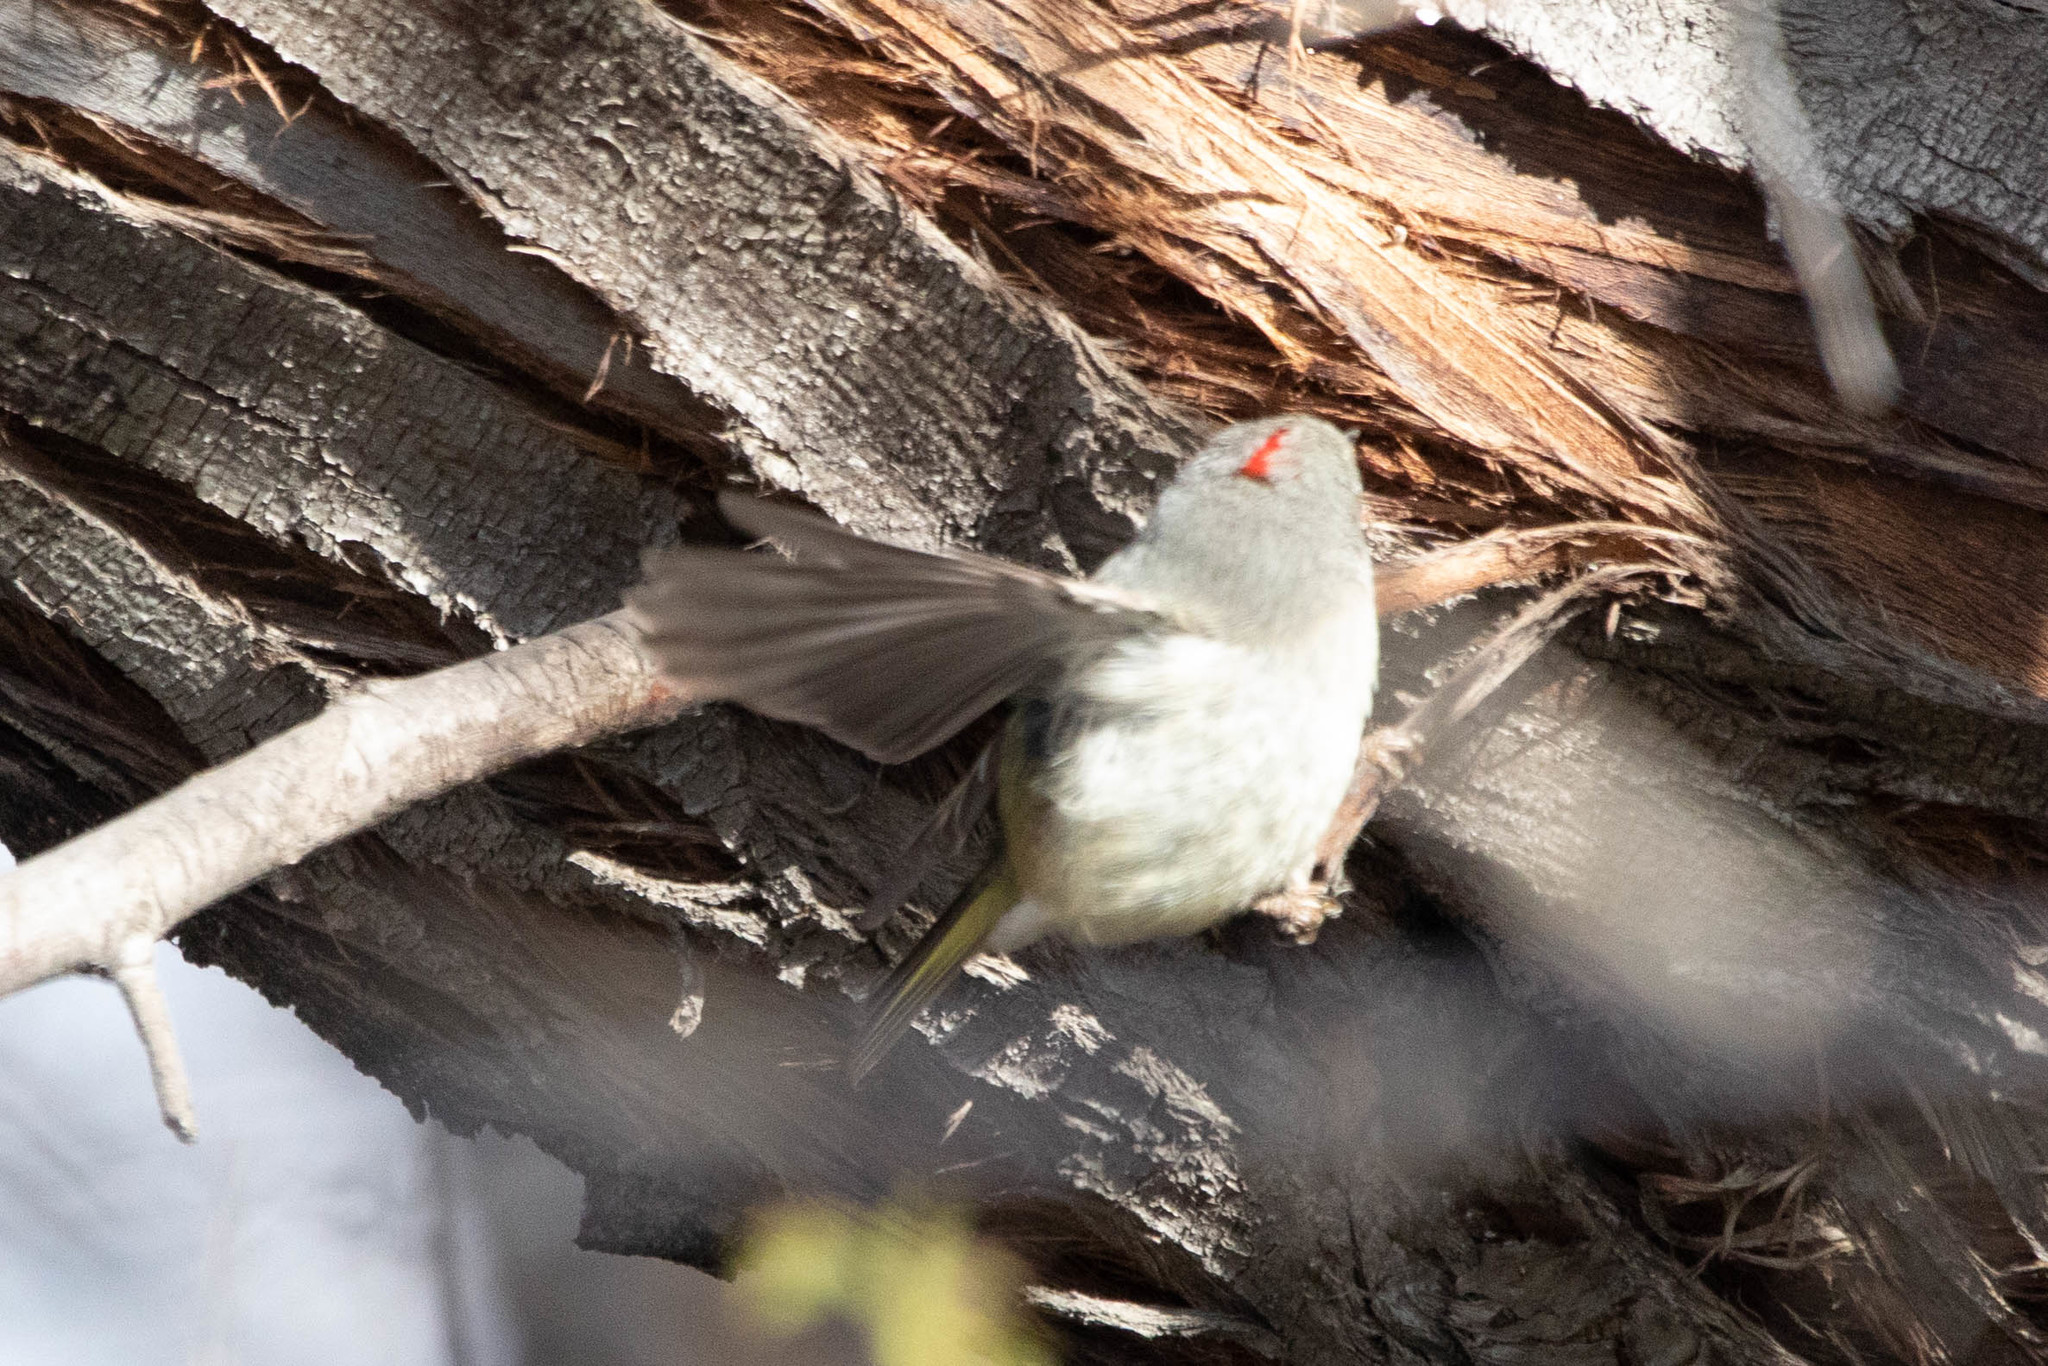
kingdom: Animalia
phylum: Chordata
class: Aves
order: Passeriformes
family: Regulidae
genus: Regulus
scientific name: Regulus calendula
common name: Ruby-crowned kinglet
